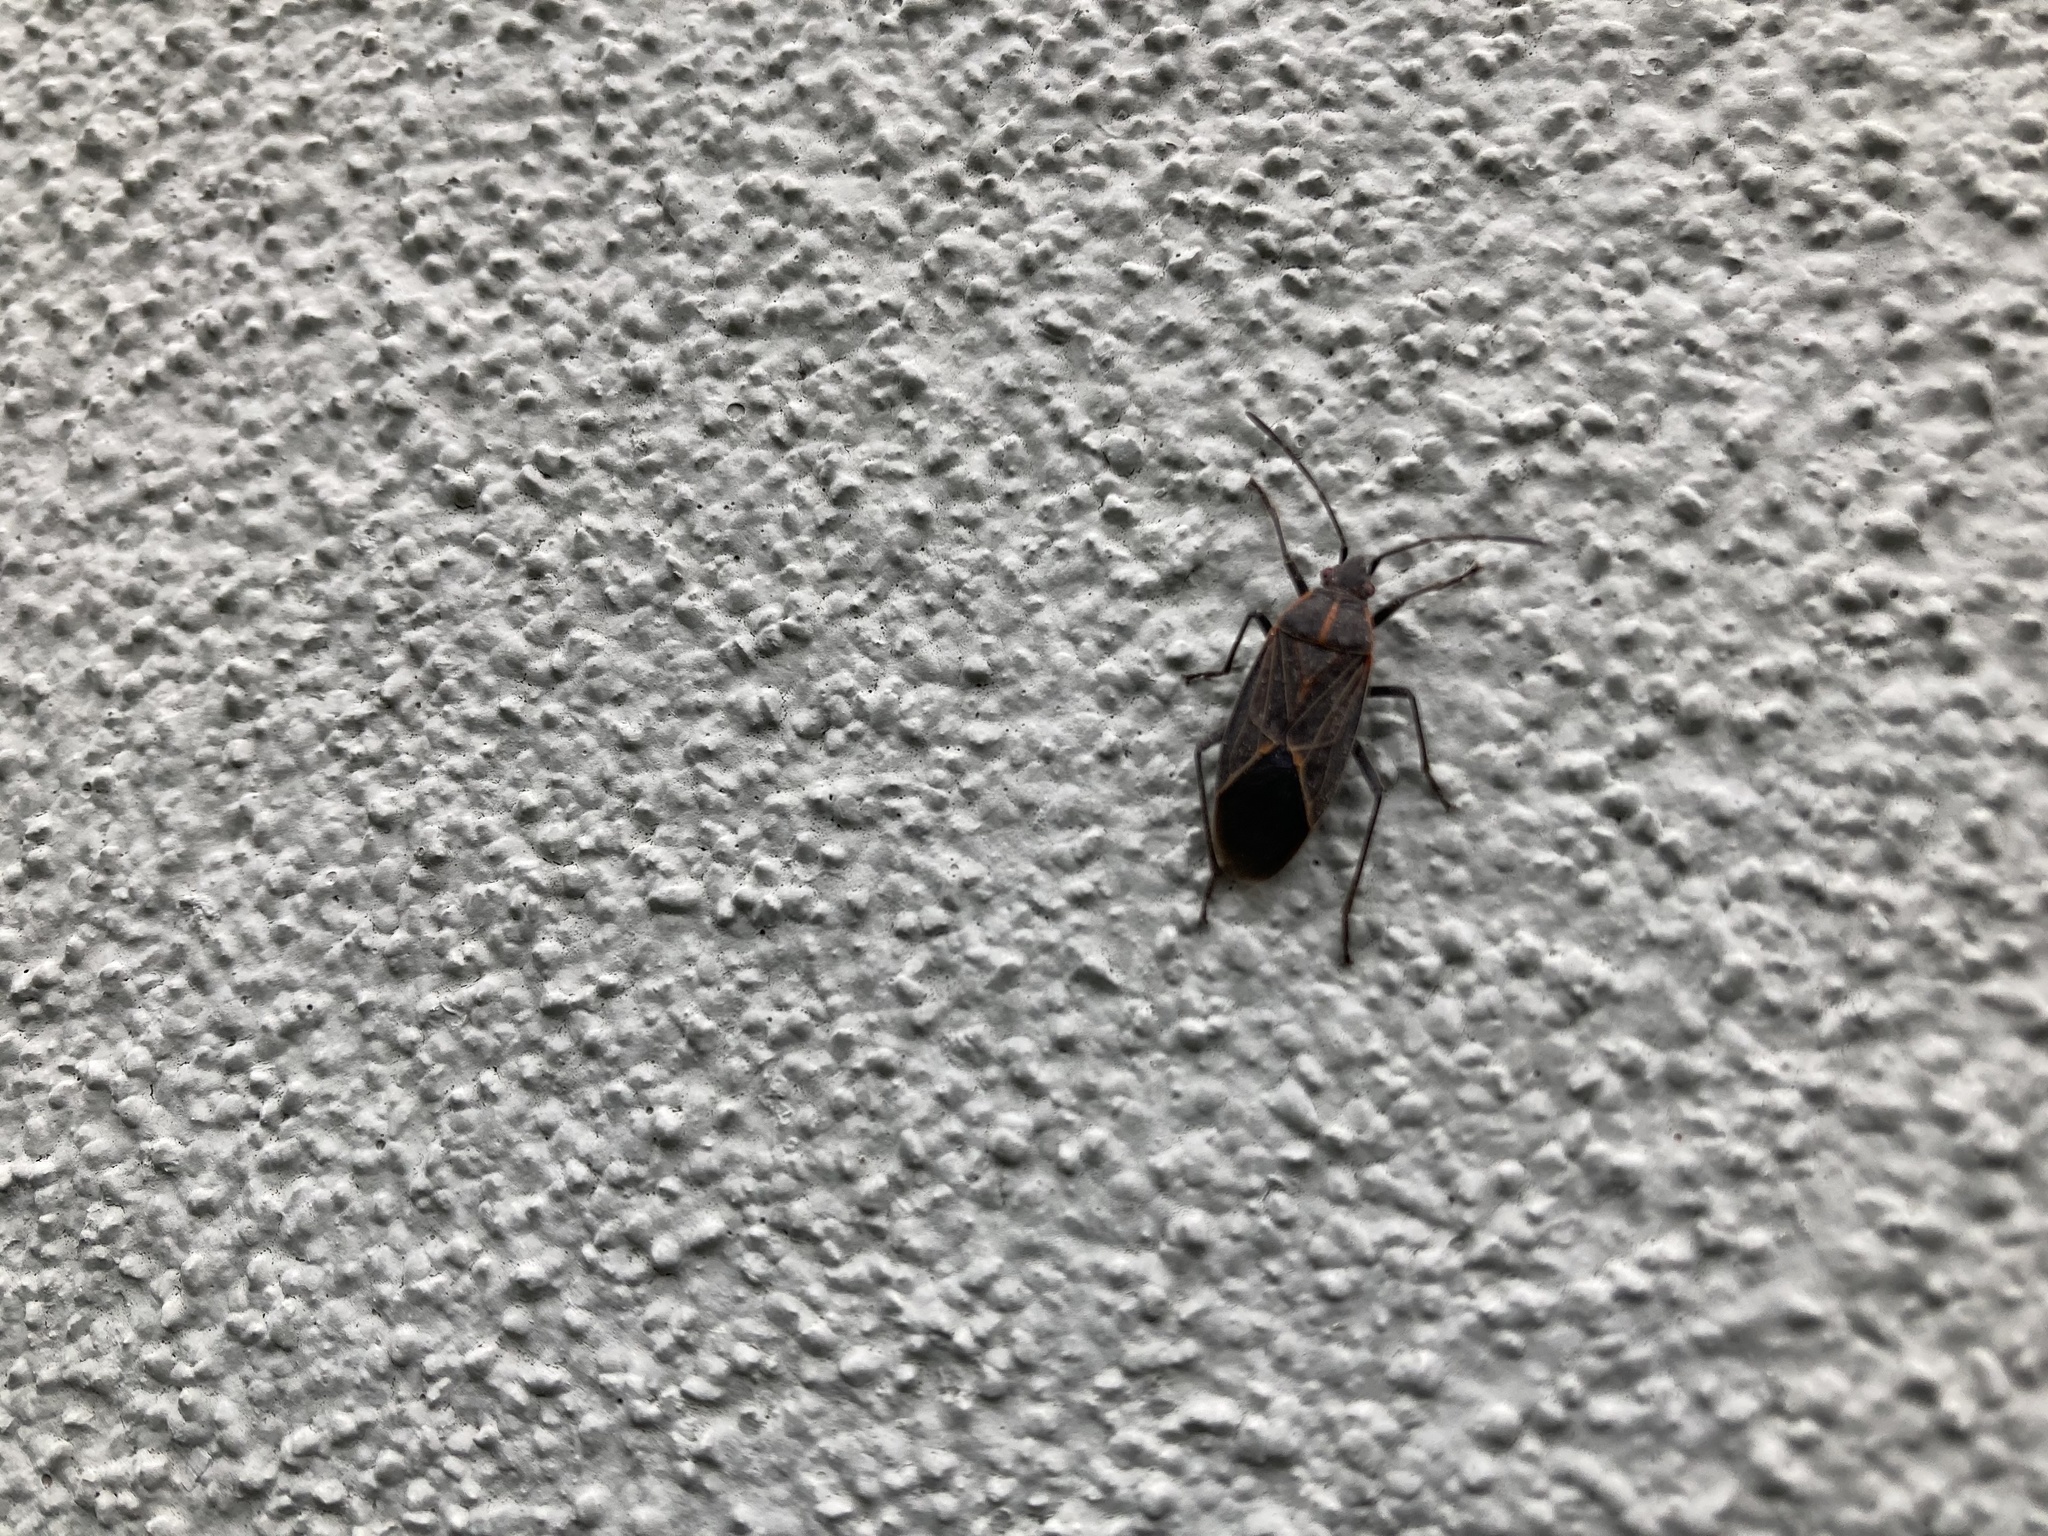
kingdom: Animalia
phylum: Arthropoda
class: Insecta
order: Hemiptera
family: Rhopalidae
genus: Boisea
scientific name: Boisea rubrolineata
